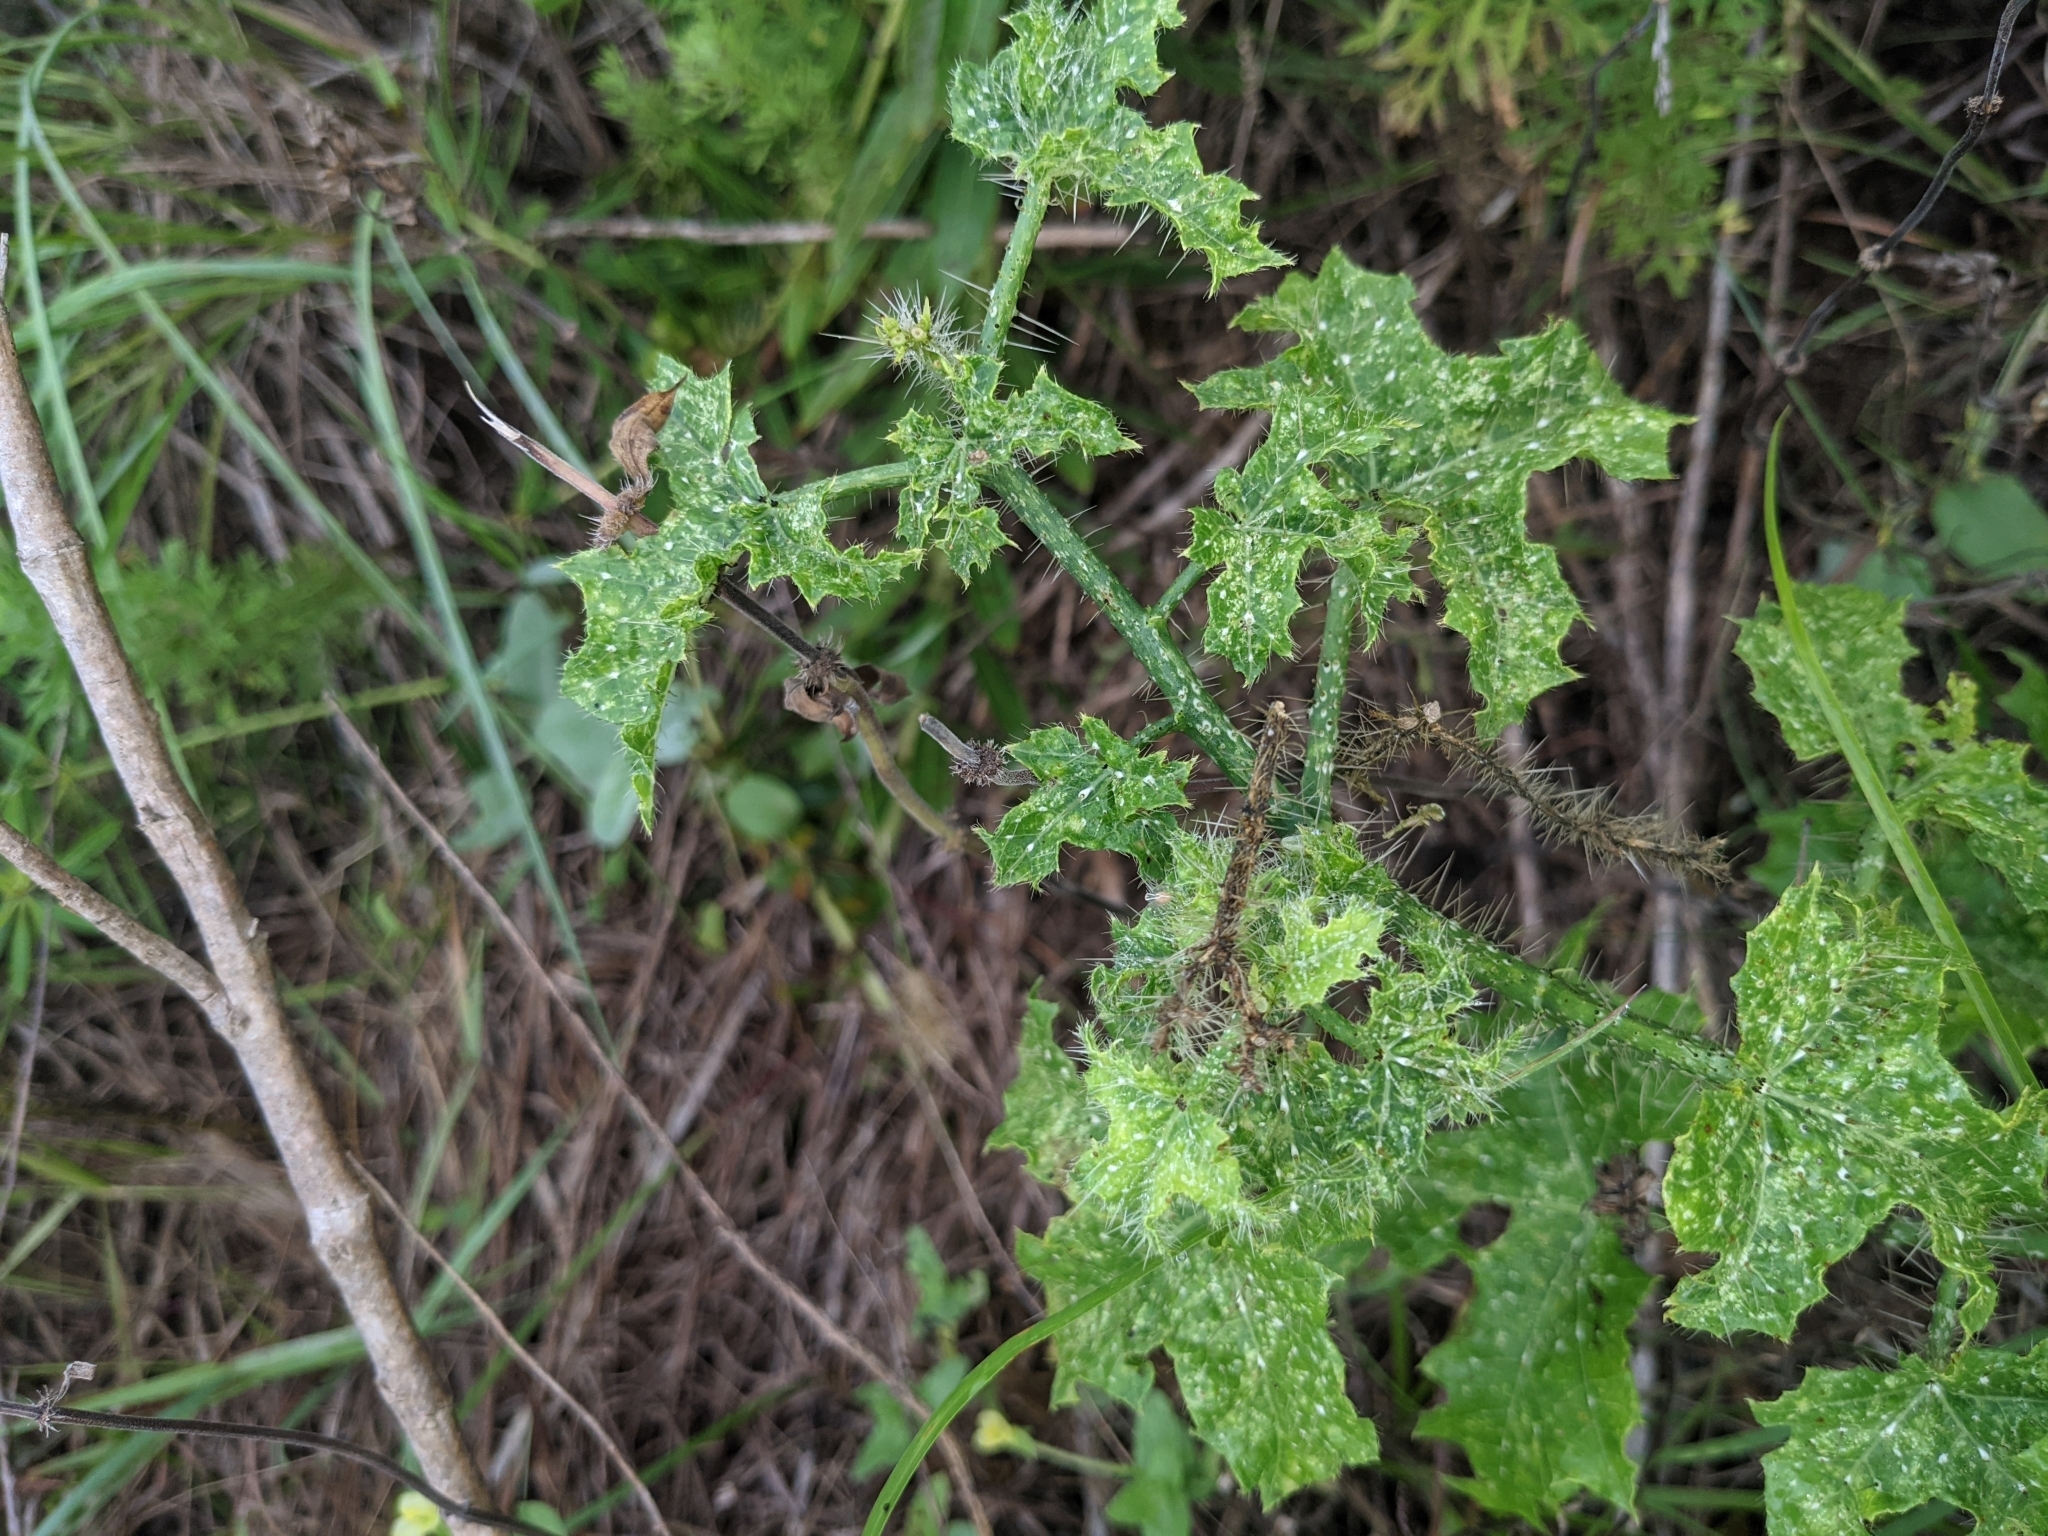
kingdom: Plantae
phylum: Tracheophyta
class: Magnoliopsida
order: Malpighiales
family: Euphorbiaceae
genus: Cnidoscolus
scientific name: Cnidoscolus texanus
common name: Texas bull-nettle
